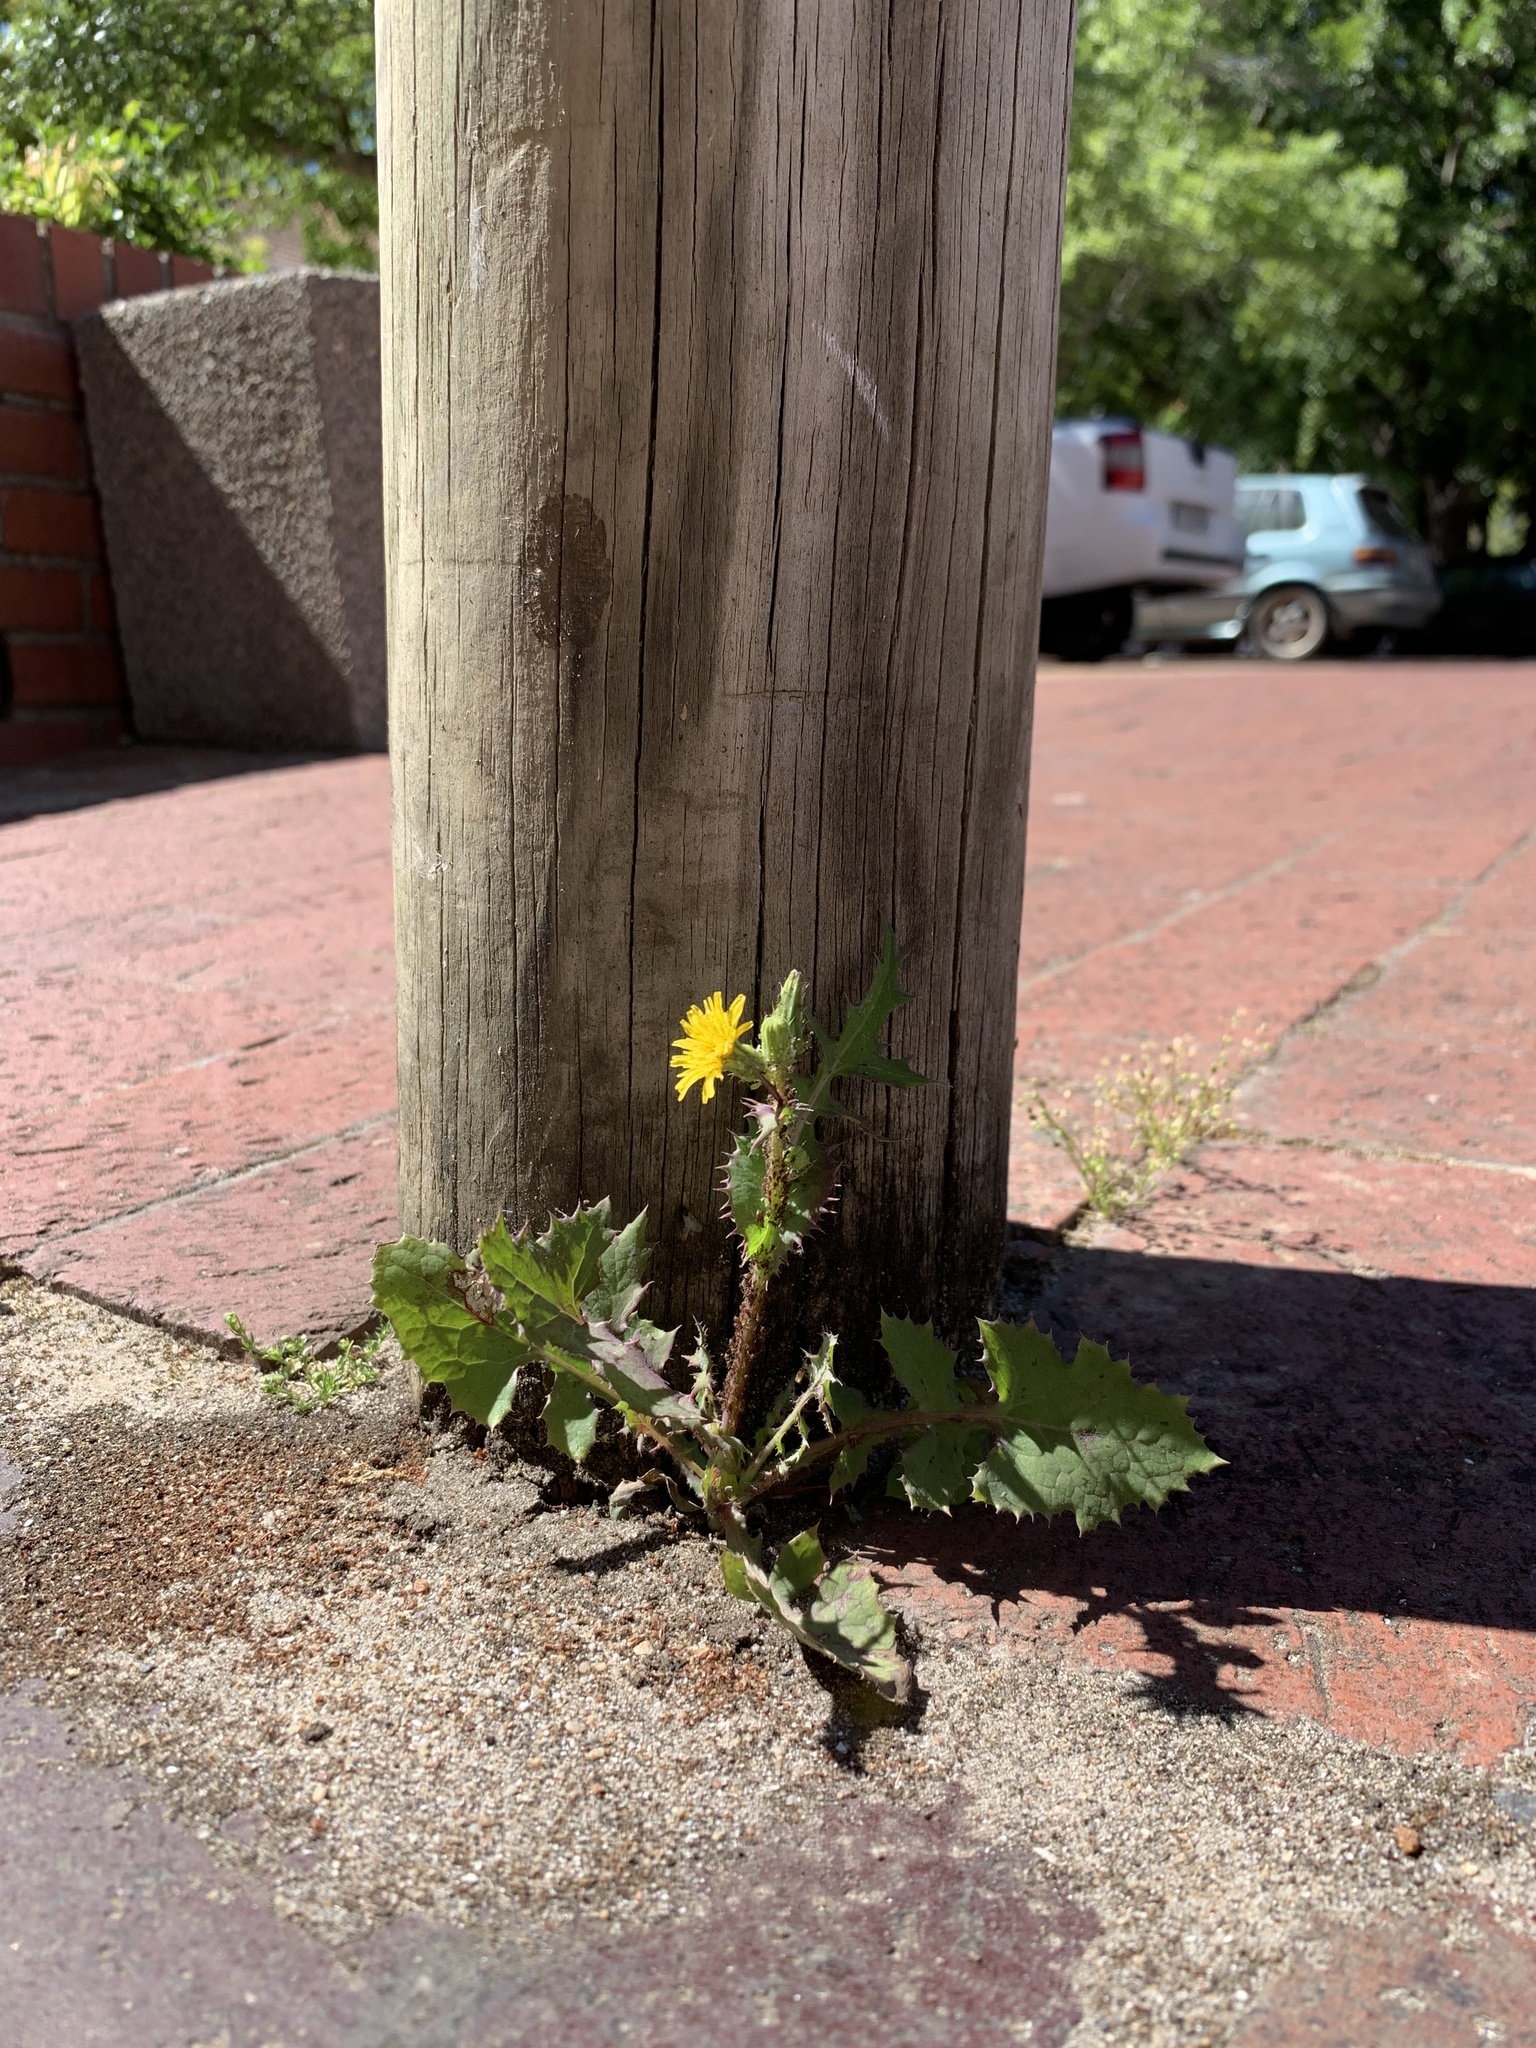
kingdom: Plantae
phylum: Tracheophyta
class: Magnoliopsida
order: Asterales
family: Asteraceae
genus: Sonchus
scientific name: Sonchus oleraceus
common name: Common sowthistle
